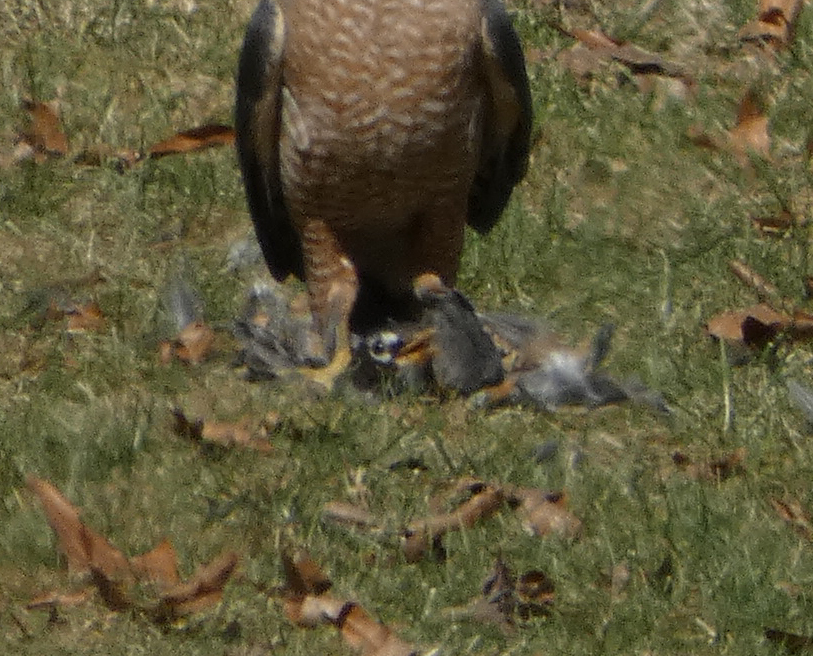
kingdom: Animalia
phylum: Chordata
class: Aves
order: Passeriformes
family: Turdidae
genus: Turdus
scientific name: Turdus migratorius
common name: American robin
